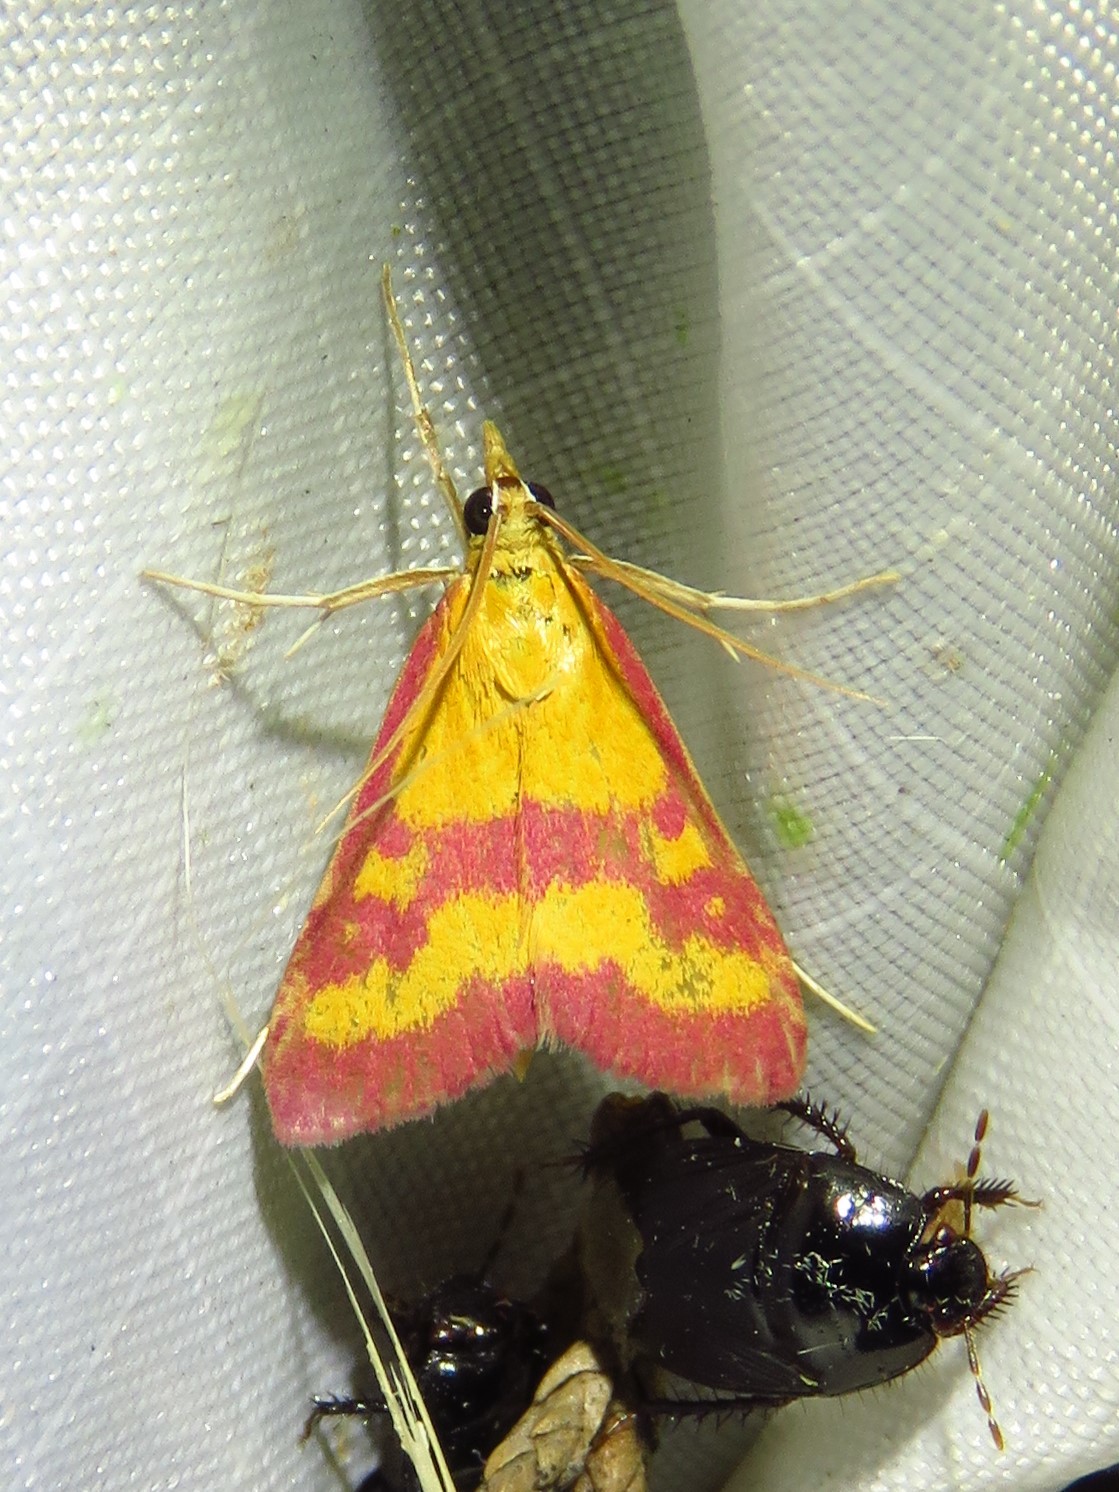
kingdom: Animalia
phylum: Arthropoda
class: Insecta
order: Lepidoptera
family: Crambidae
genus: Pyrausta
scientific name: Pyrausta laticlavia
